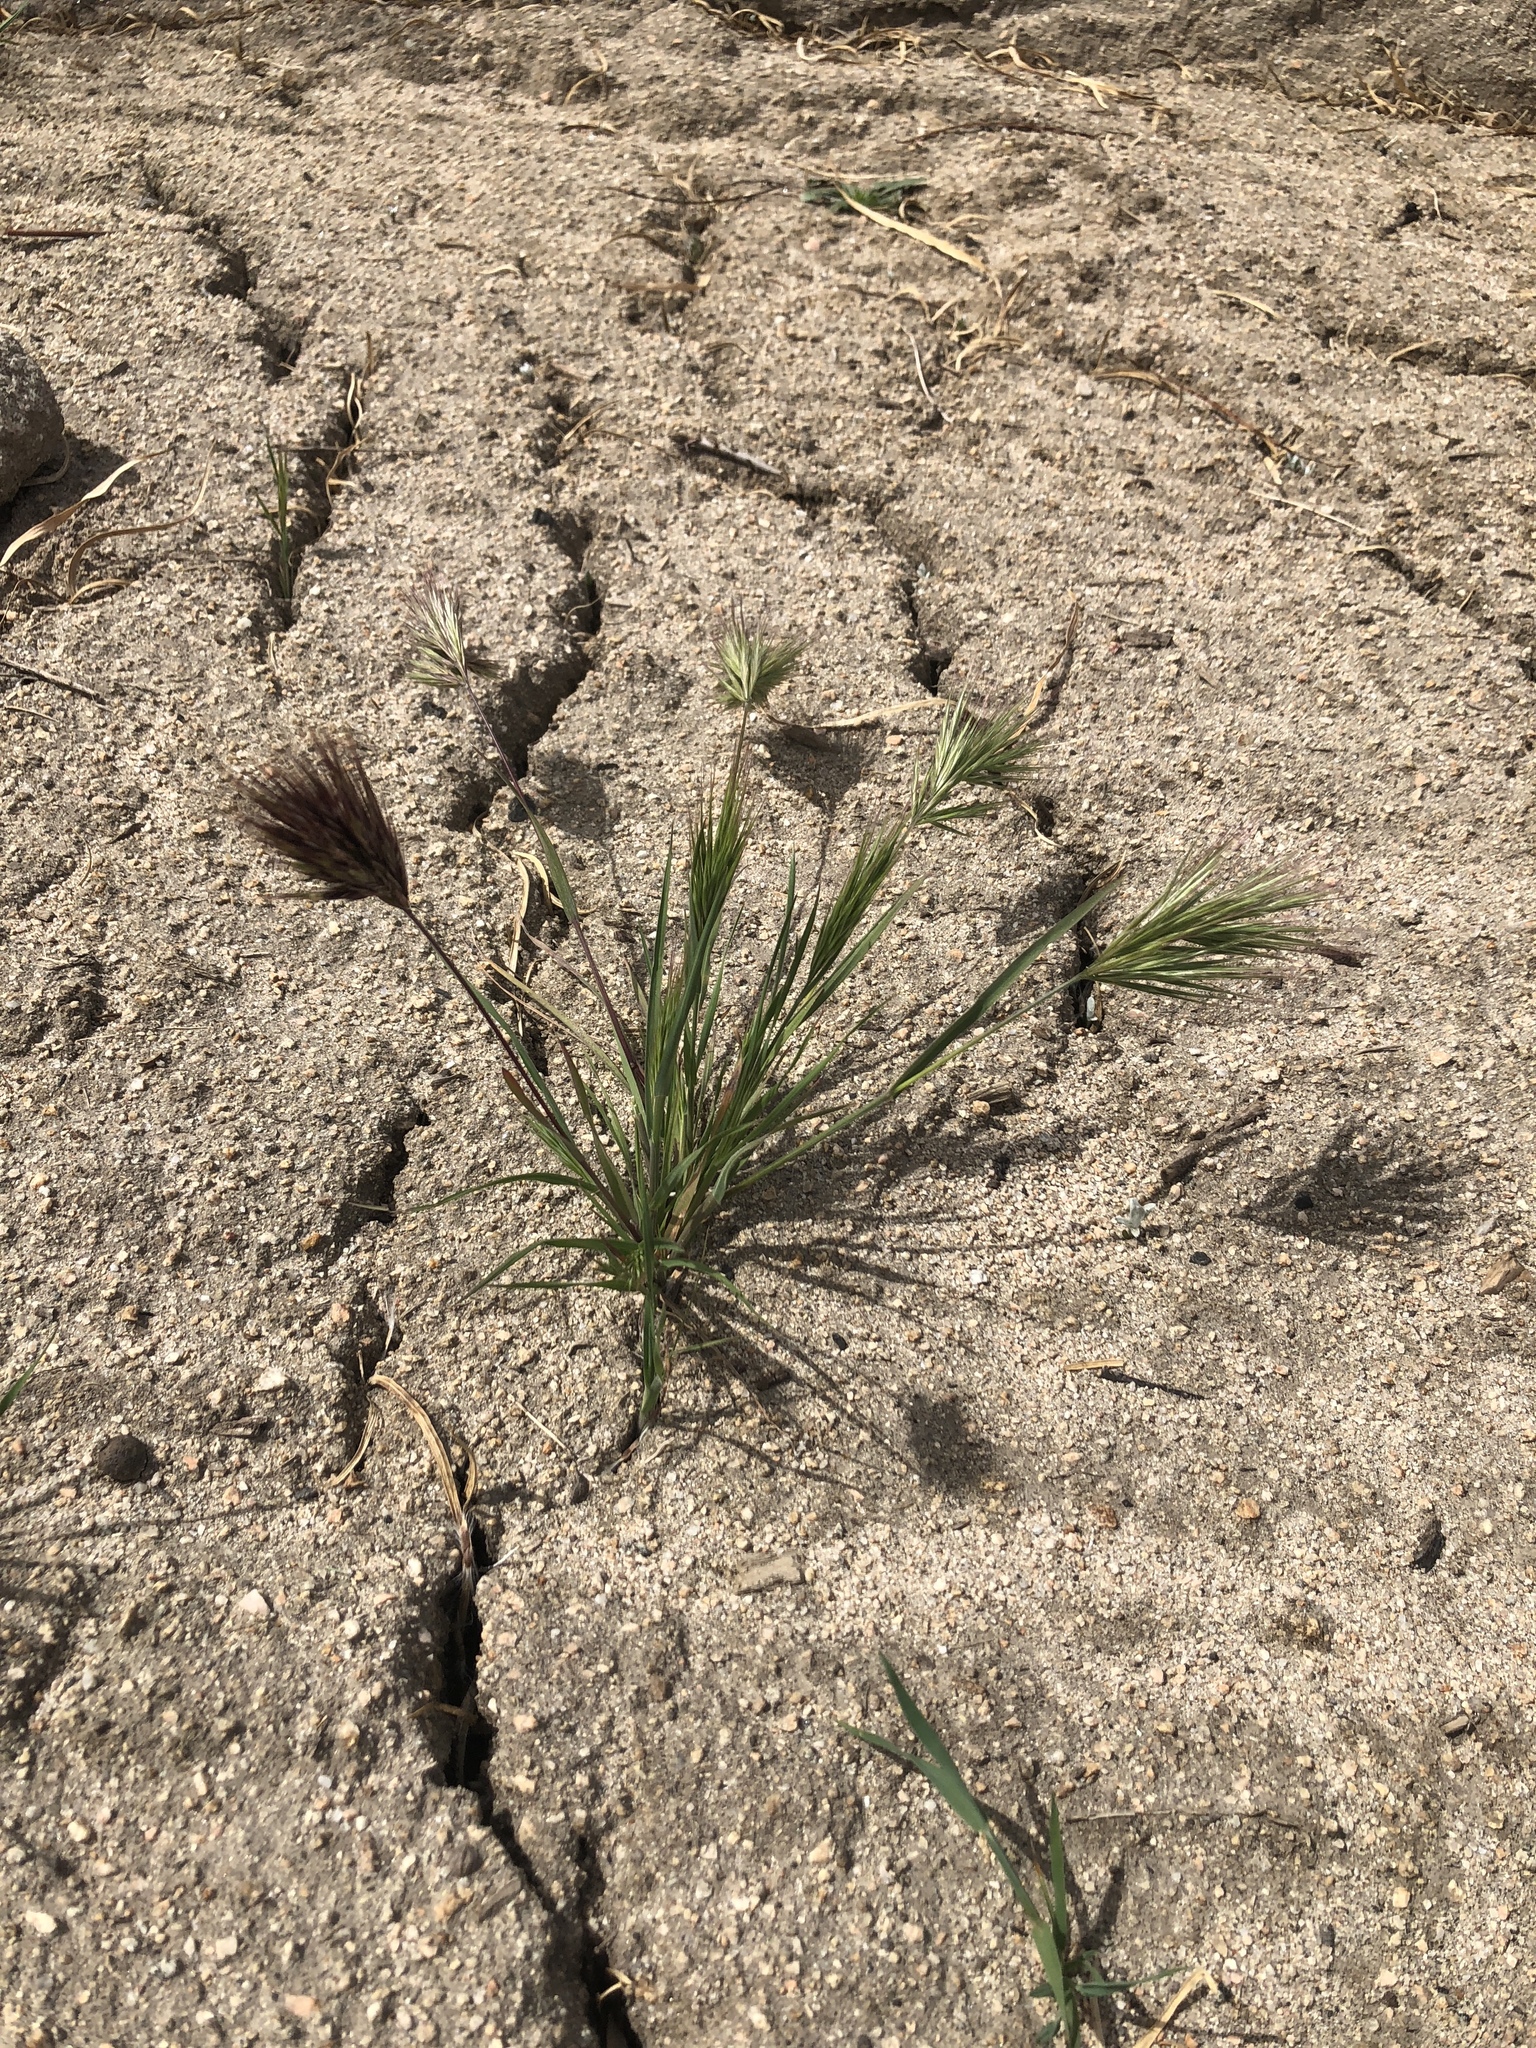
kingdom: Plantae
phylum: Tracheophyta
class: Liliopsida
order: Poales
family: Poaceae
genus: Bromus
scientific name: Bromus rubens
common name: Red brome
